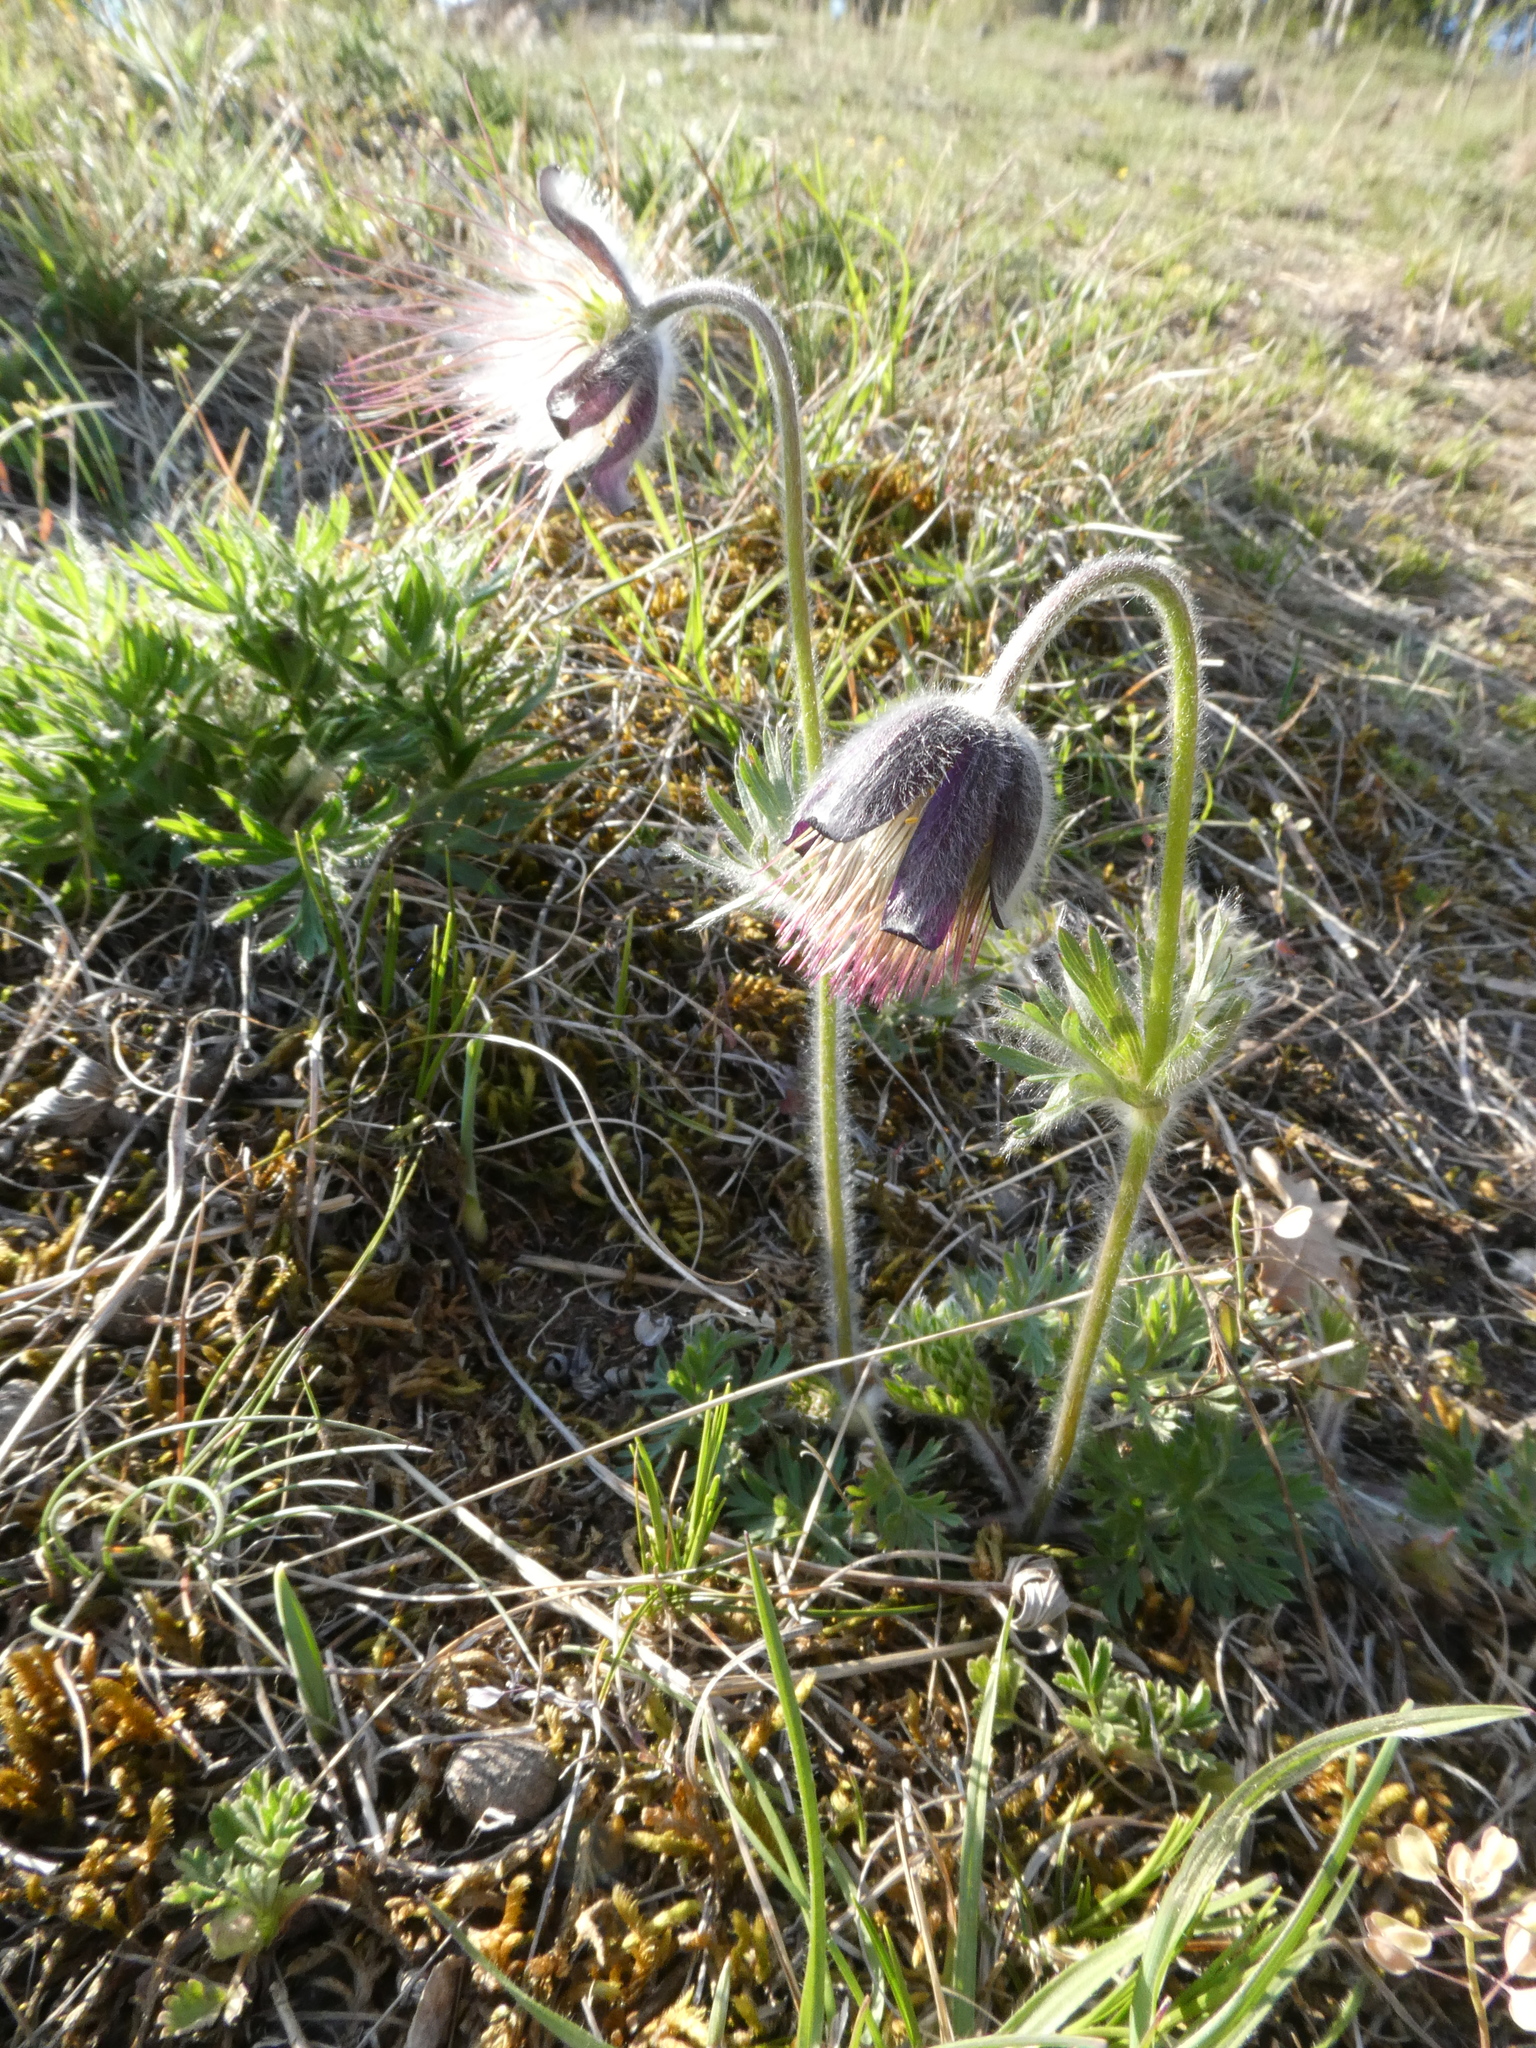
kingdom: Plantae
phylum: Tracheophyta
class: Magnoliopsida
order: Ranunculales
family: Ranunculaceae
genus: Pulsatilla
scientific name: Pulsatilla pratensis
